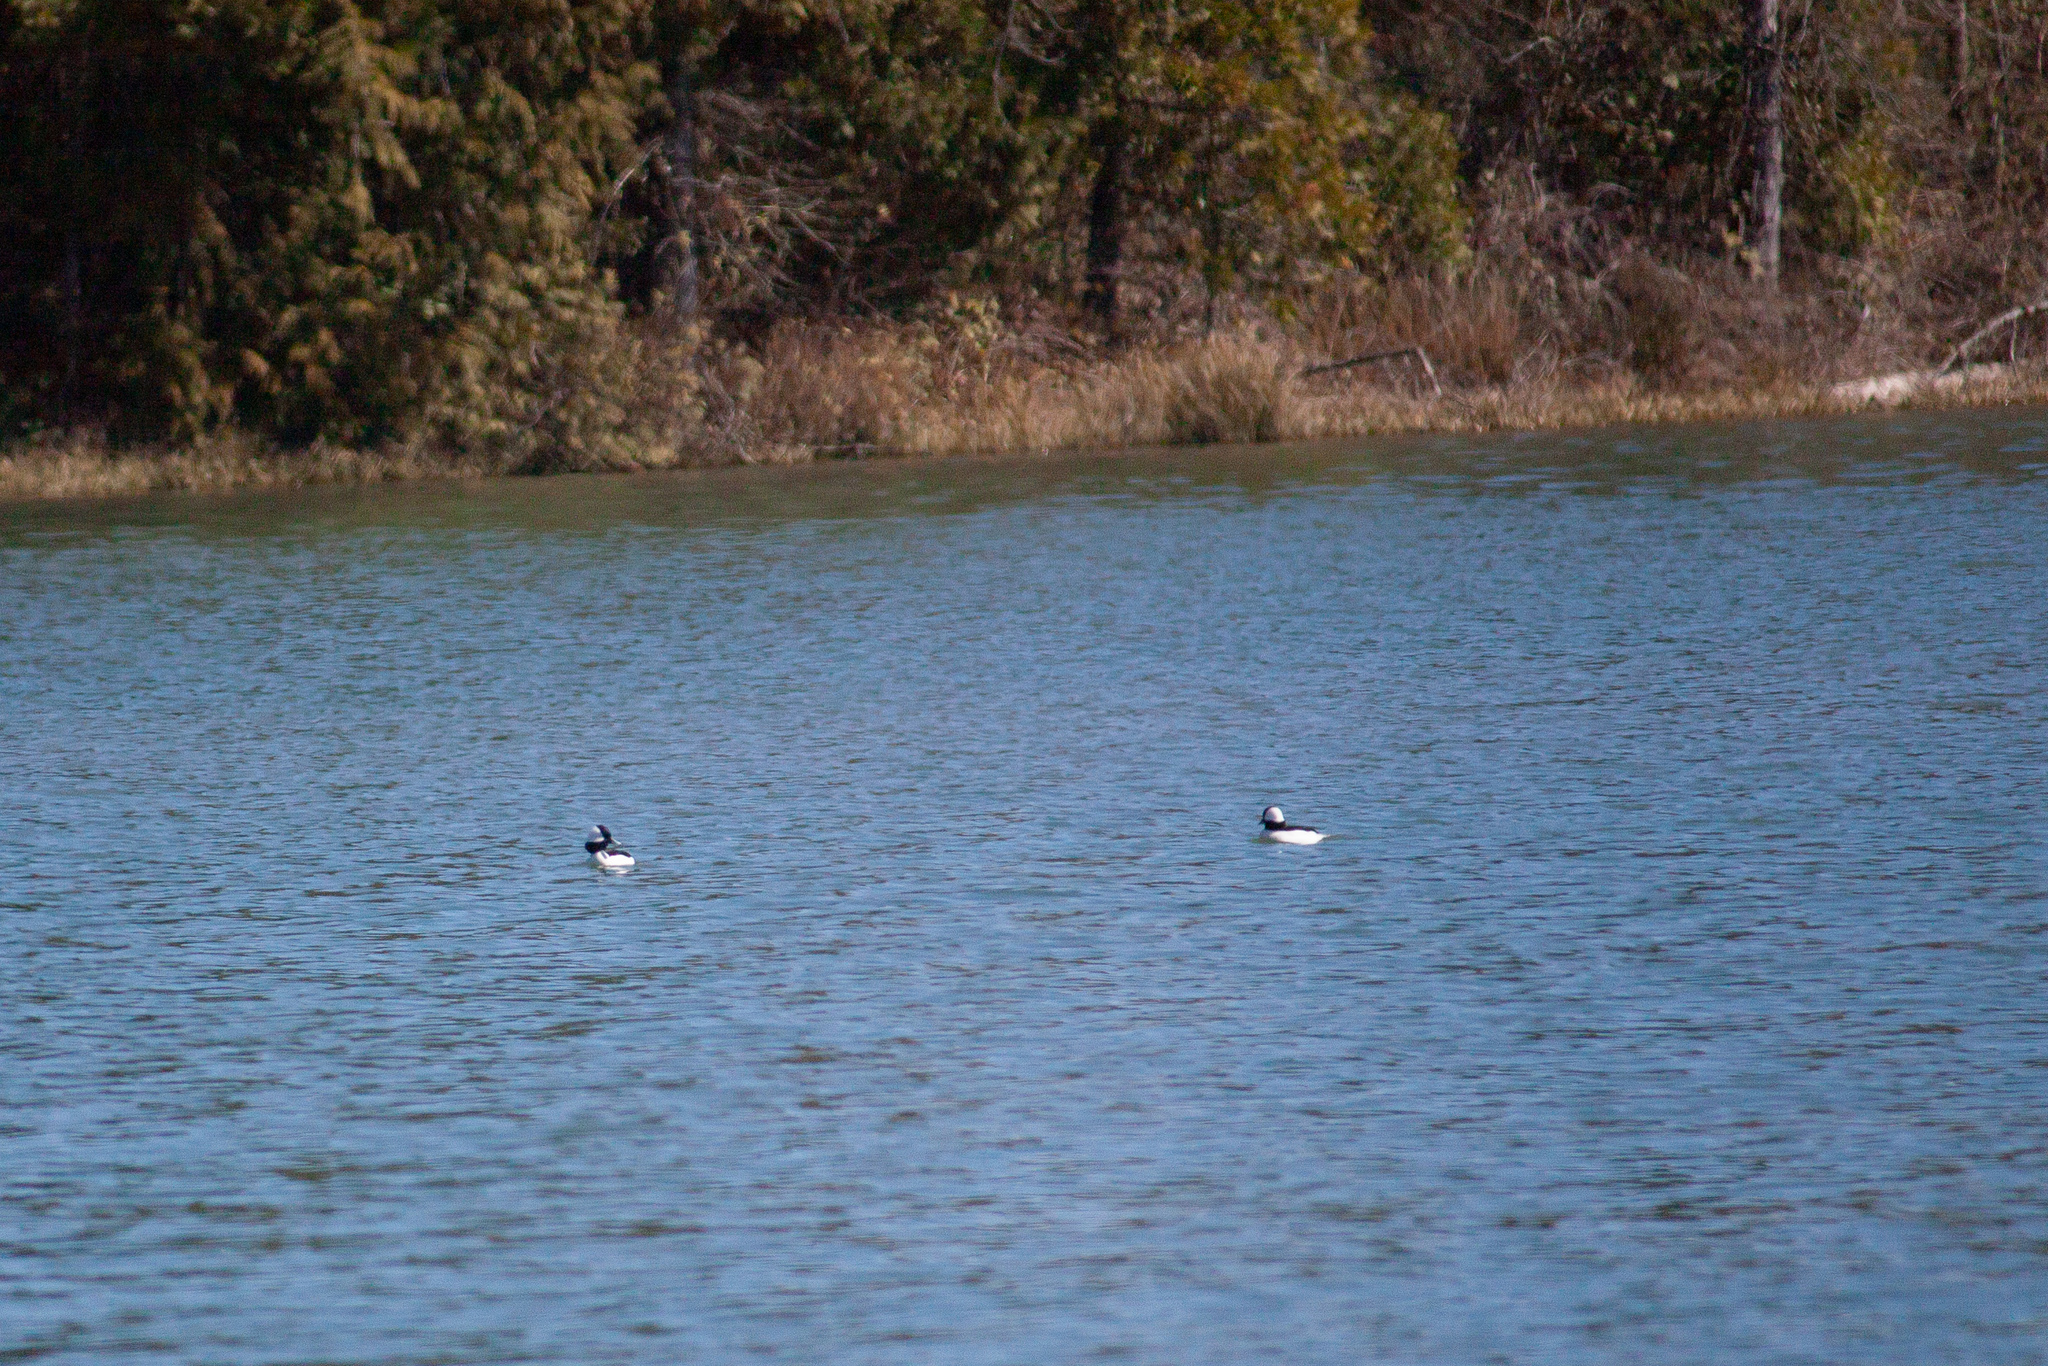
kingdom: Animalia
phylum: Chordata
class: Aves
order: Anseriformes
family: Anatidae
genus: Bucephala
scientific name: Bucephala albeola
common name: Bufflehead
